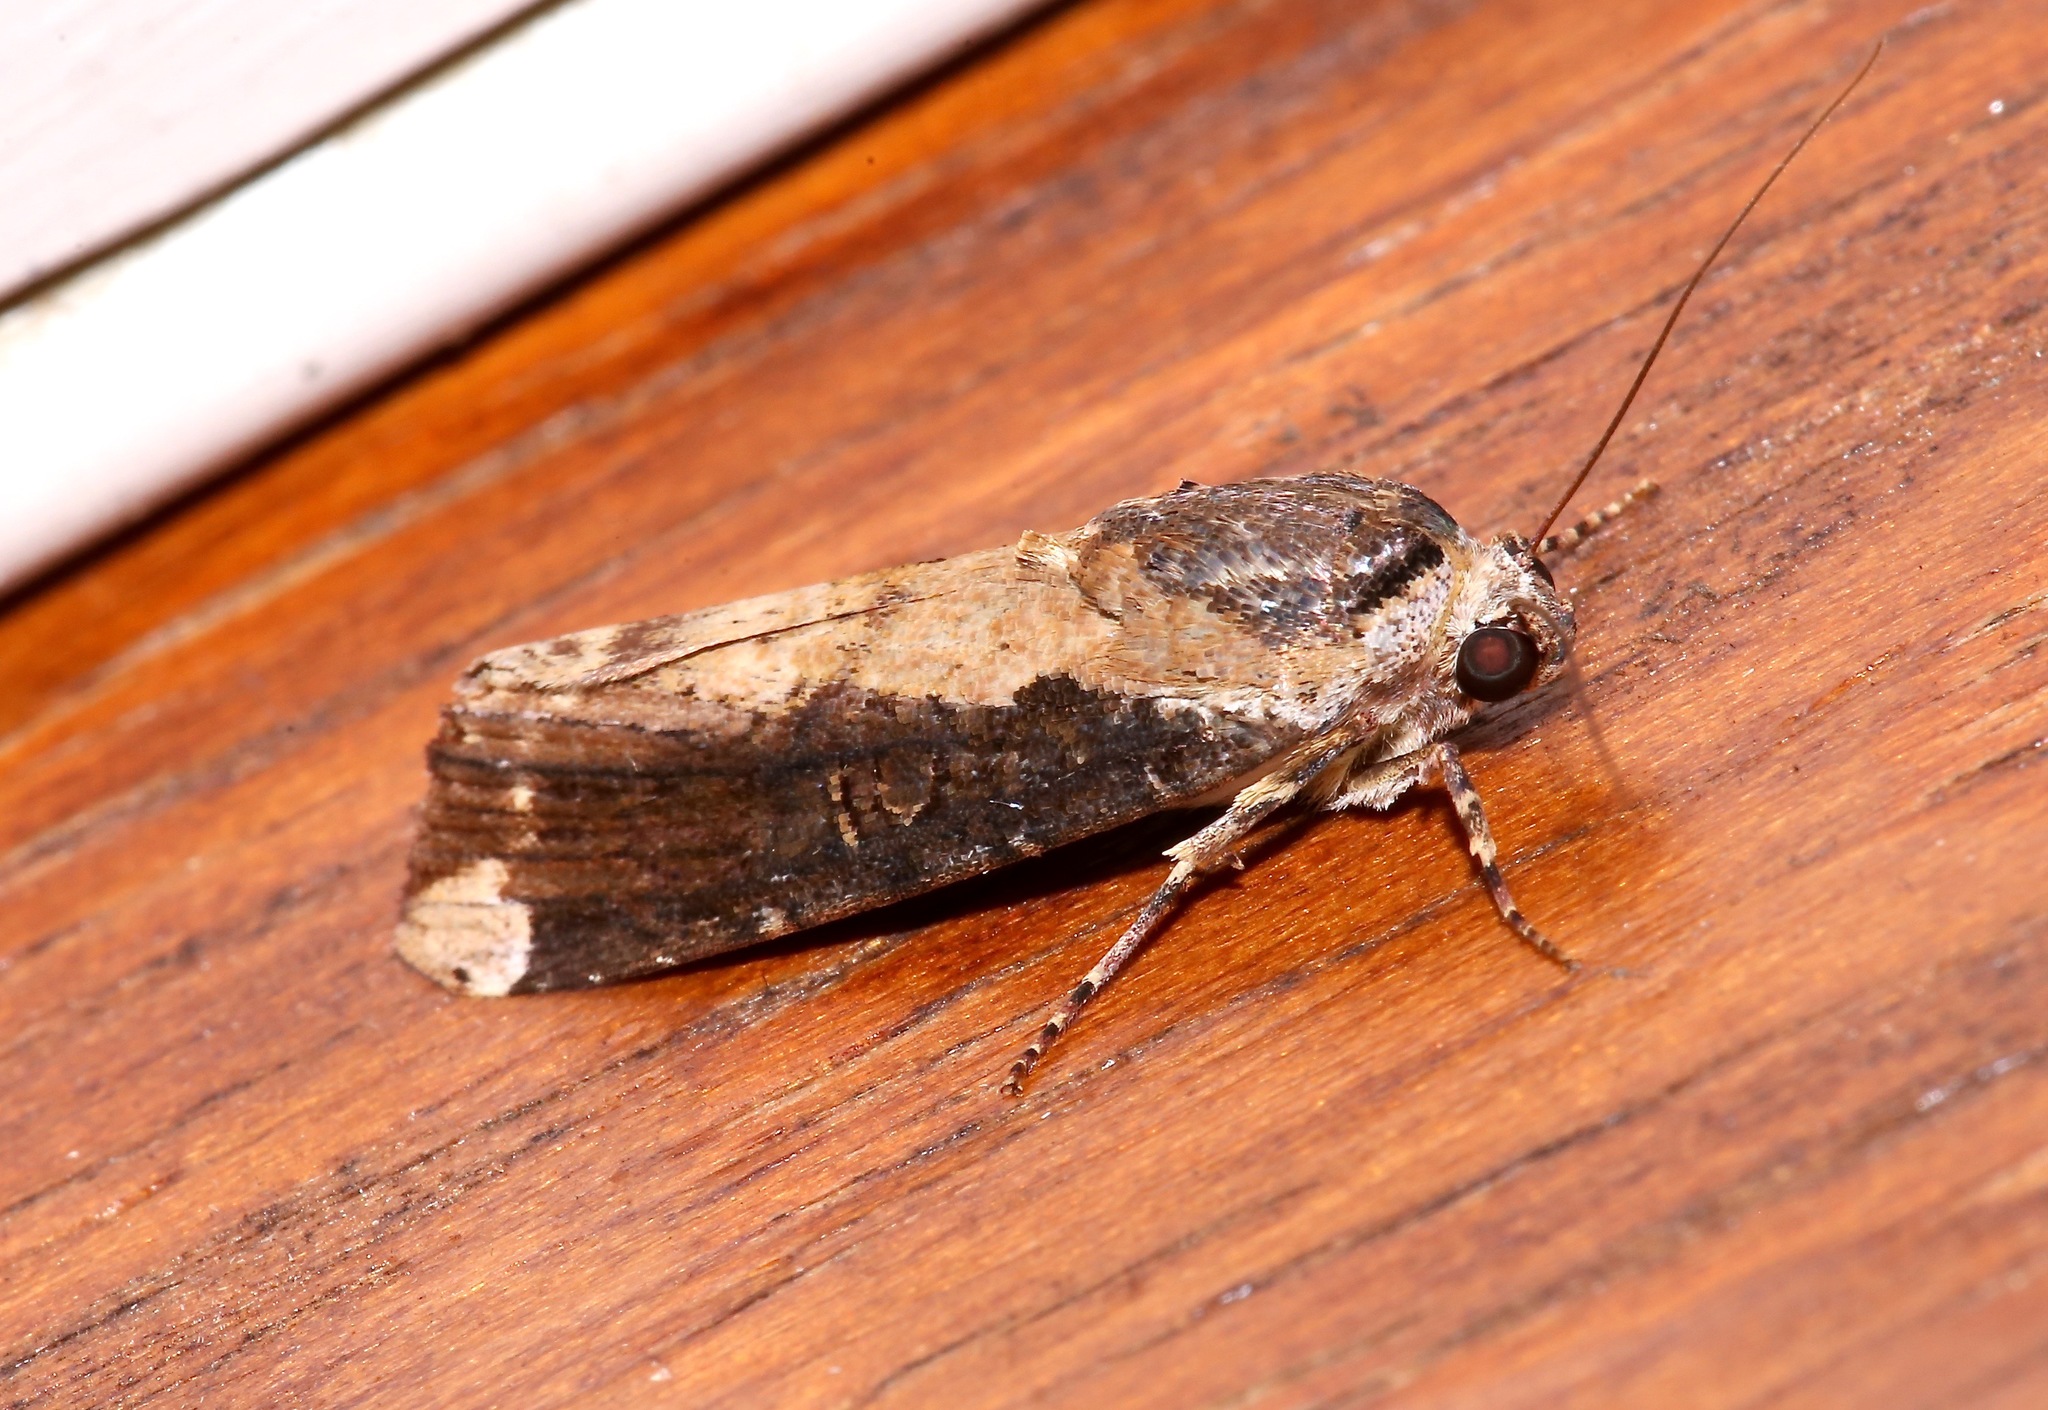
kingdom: Animalia
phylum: Arthropoda
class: Insecta
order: Lepidoptera
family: Noctuidae
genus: Magusa
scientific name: Magusa divaricata
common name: Orb narrow-winged moth
